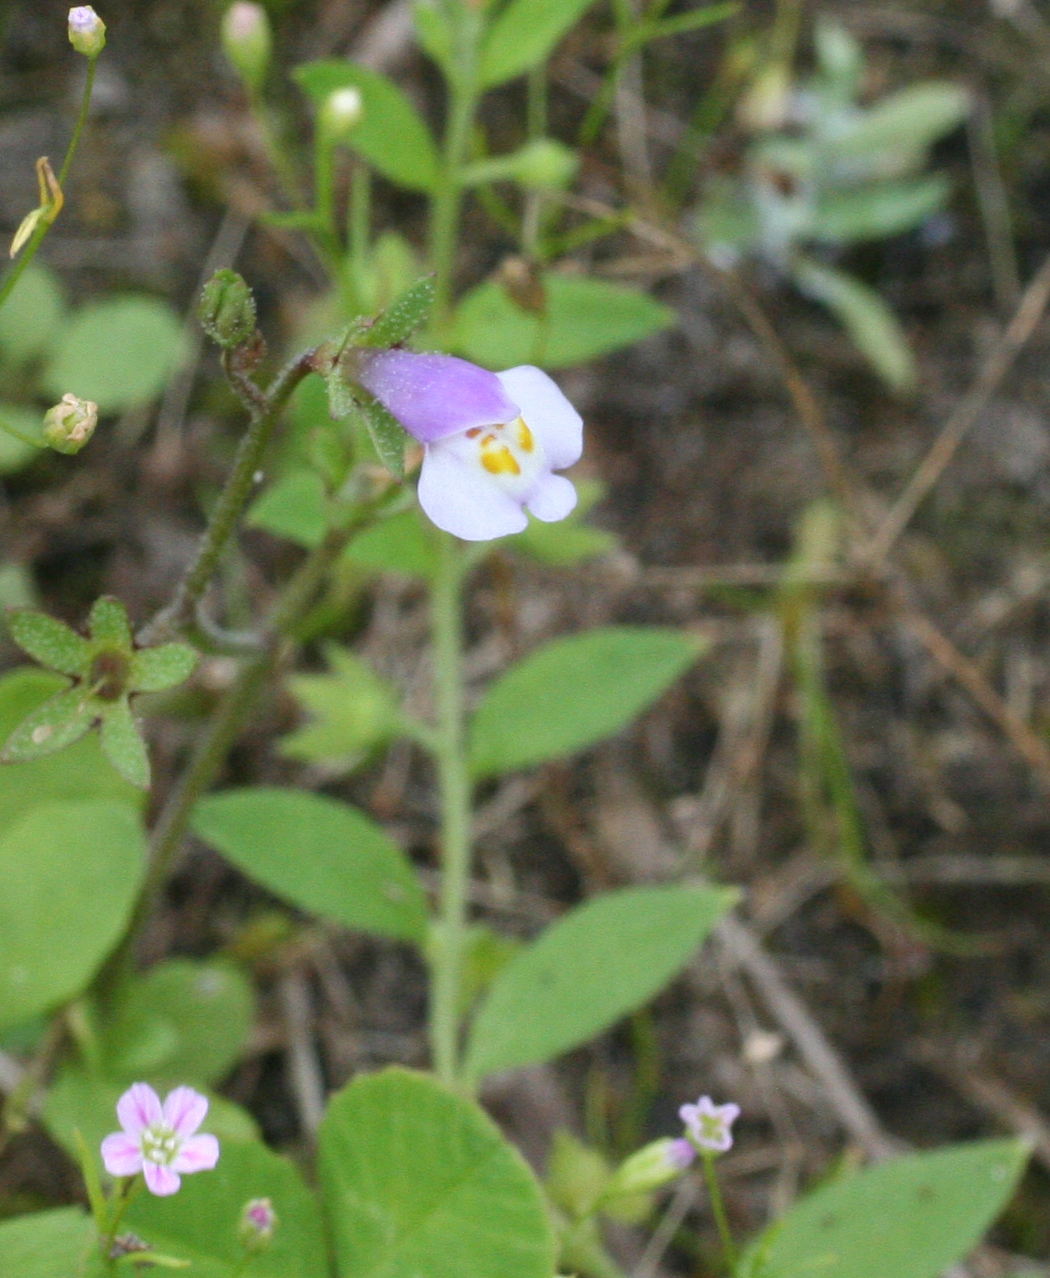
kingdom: Plantae
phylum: Tracheophyta
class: Magnoliopsida
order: Lamiales
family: Mazaceae
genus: Mazus
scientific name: Mazus pumilus
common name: Japanese mazus
